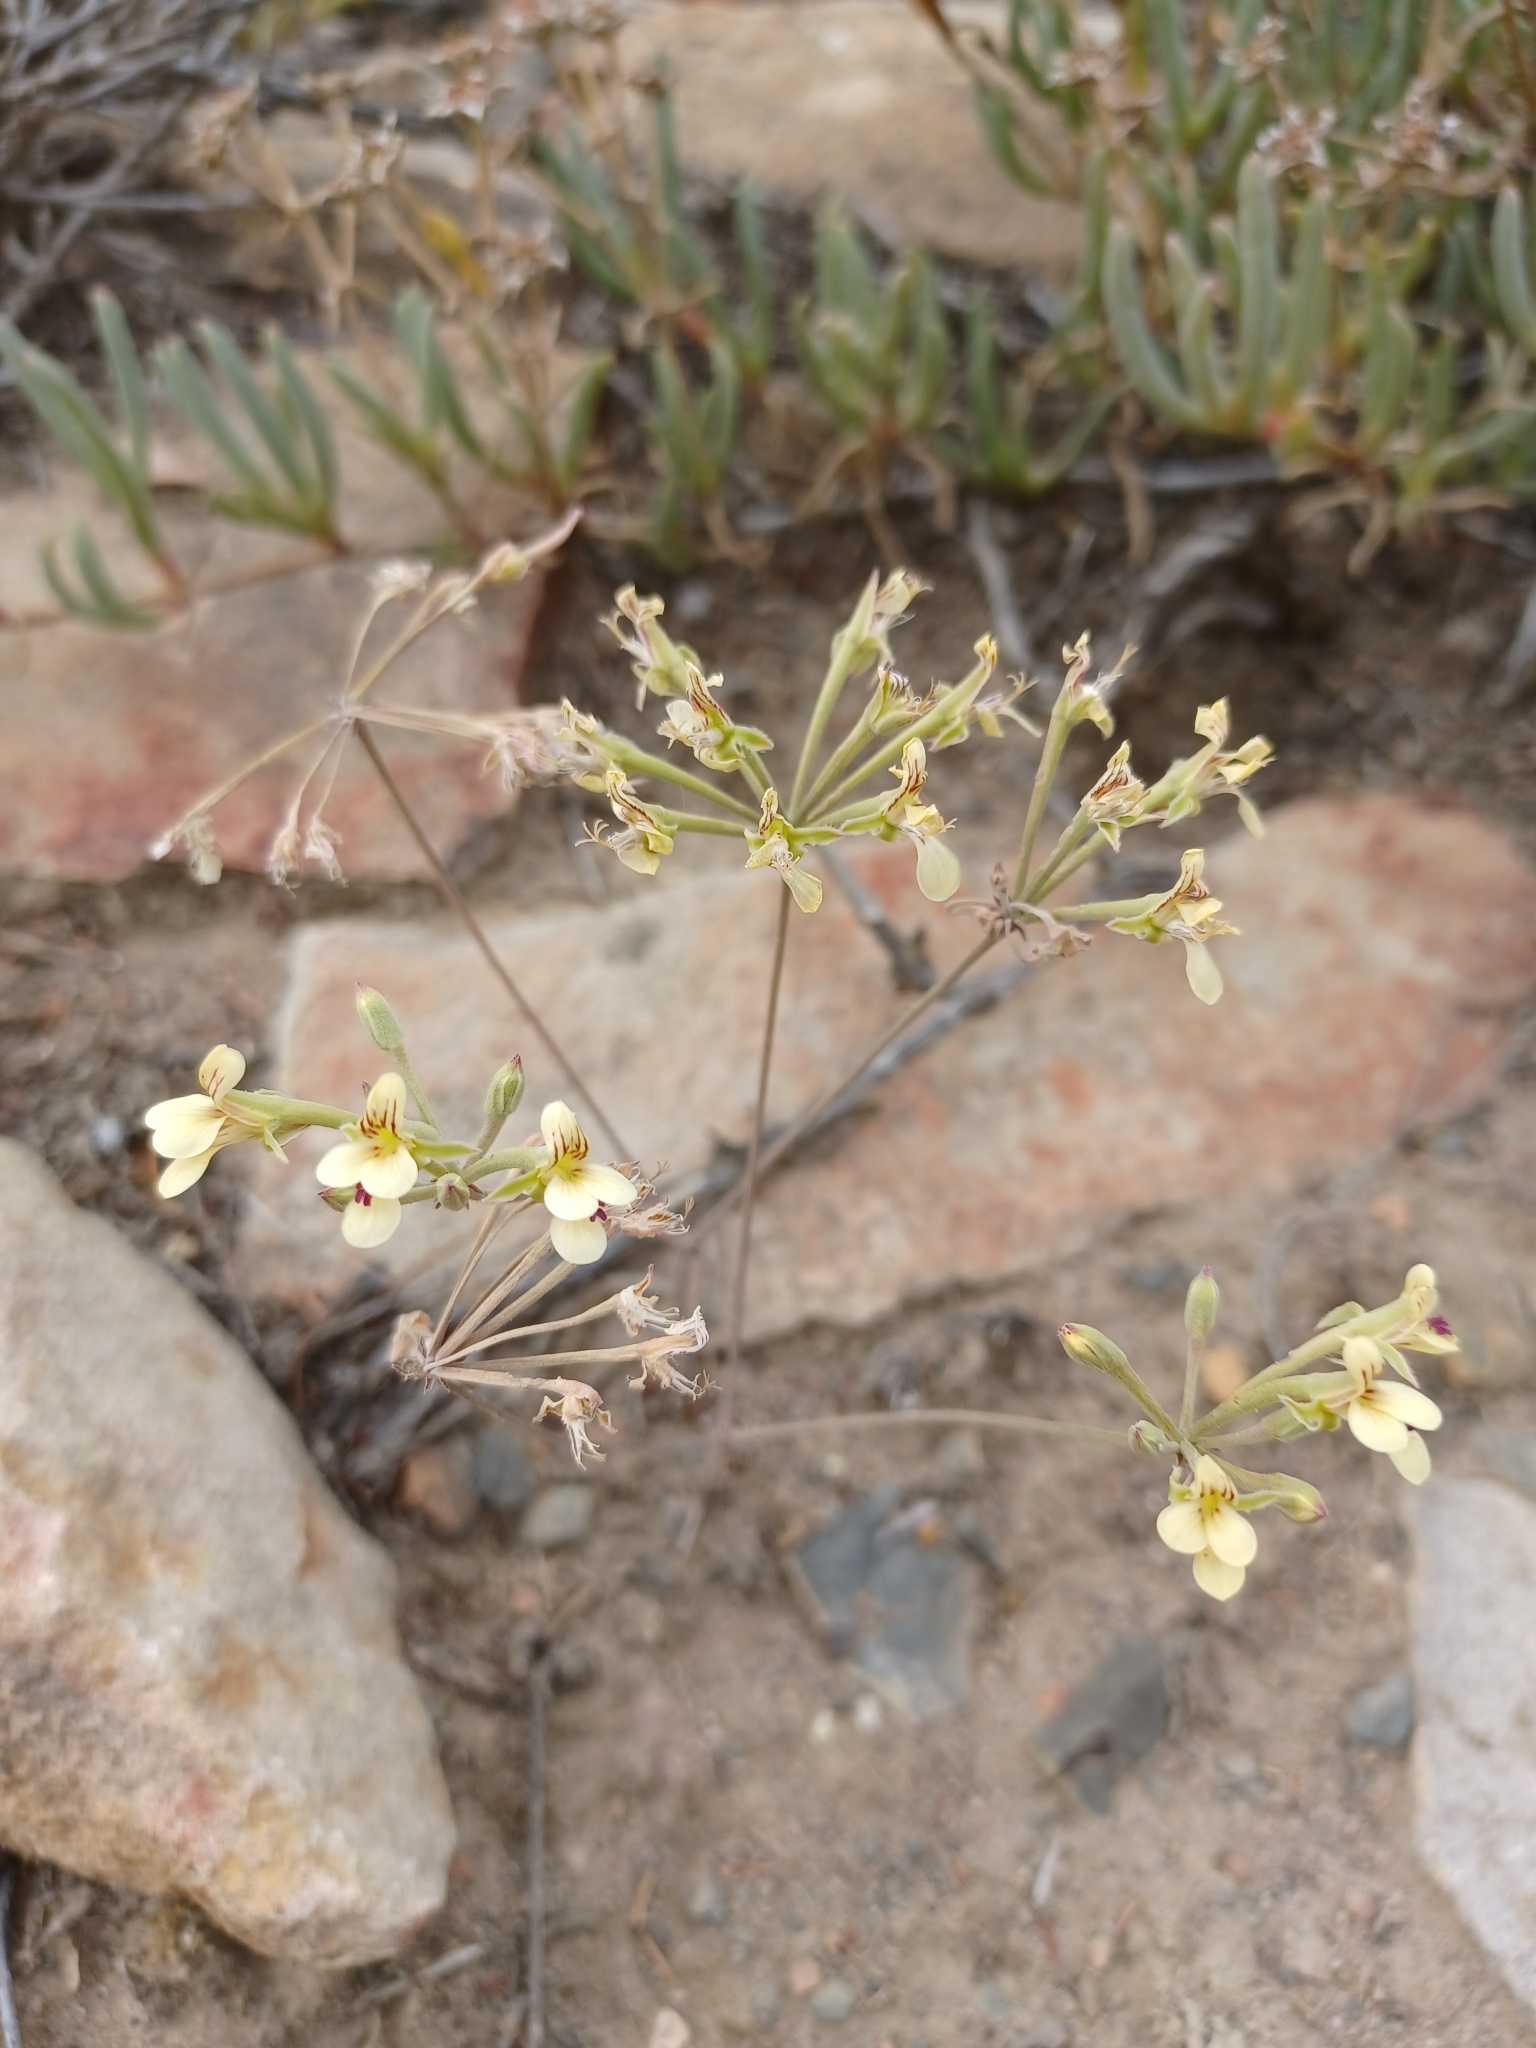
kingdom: Plantae
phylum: Tracheophyta
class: Magnoliopsida
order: Geraniales
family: Geraniaceae
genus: Pelargonium
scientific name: Pelargonium luteolum
